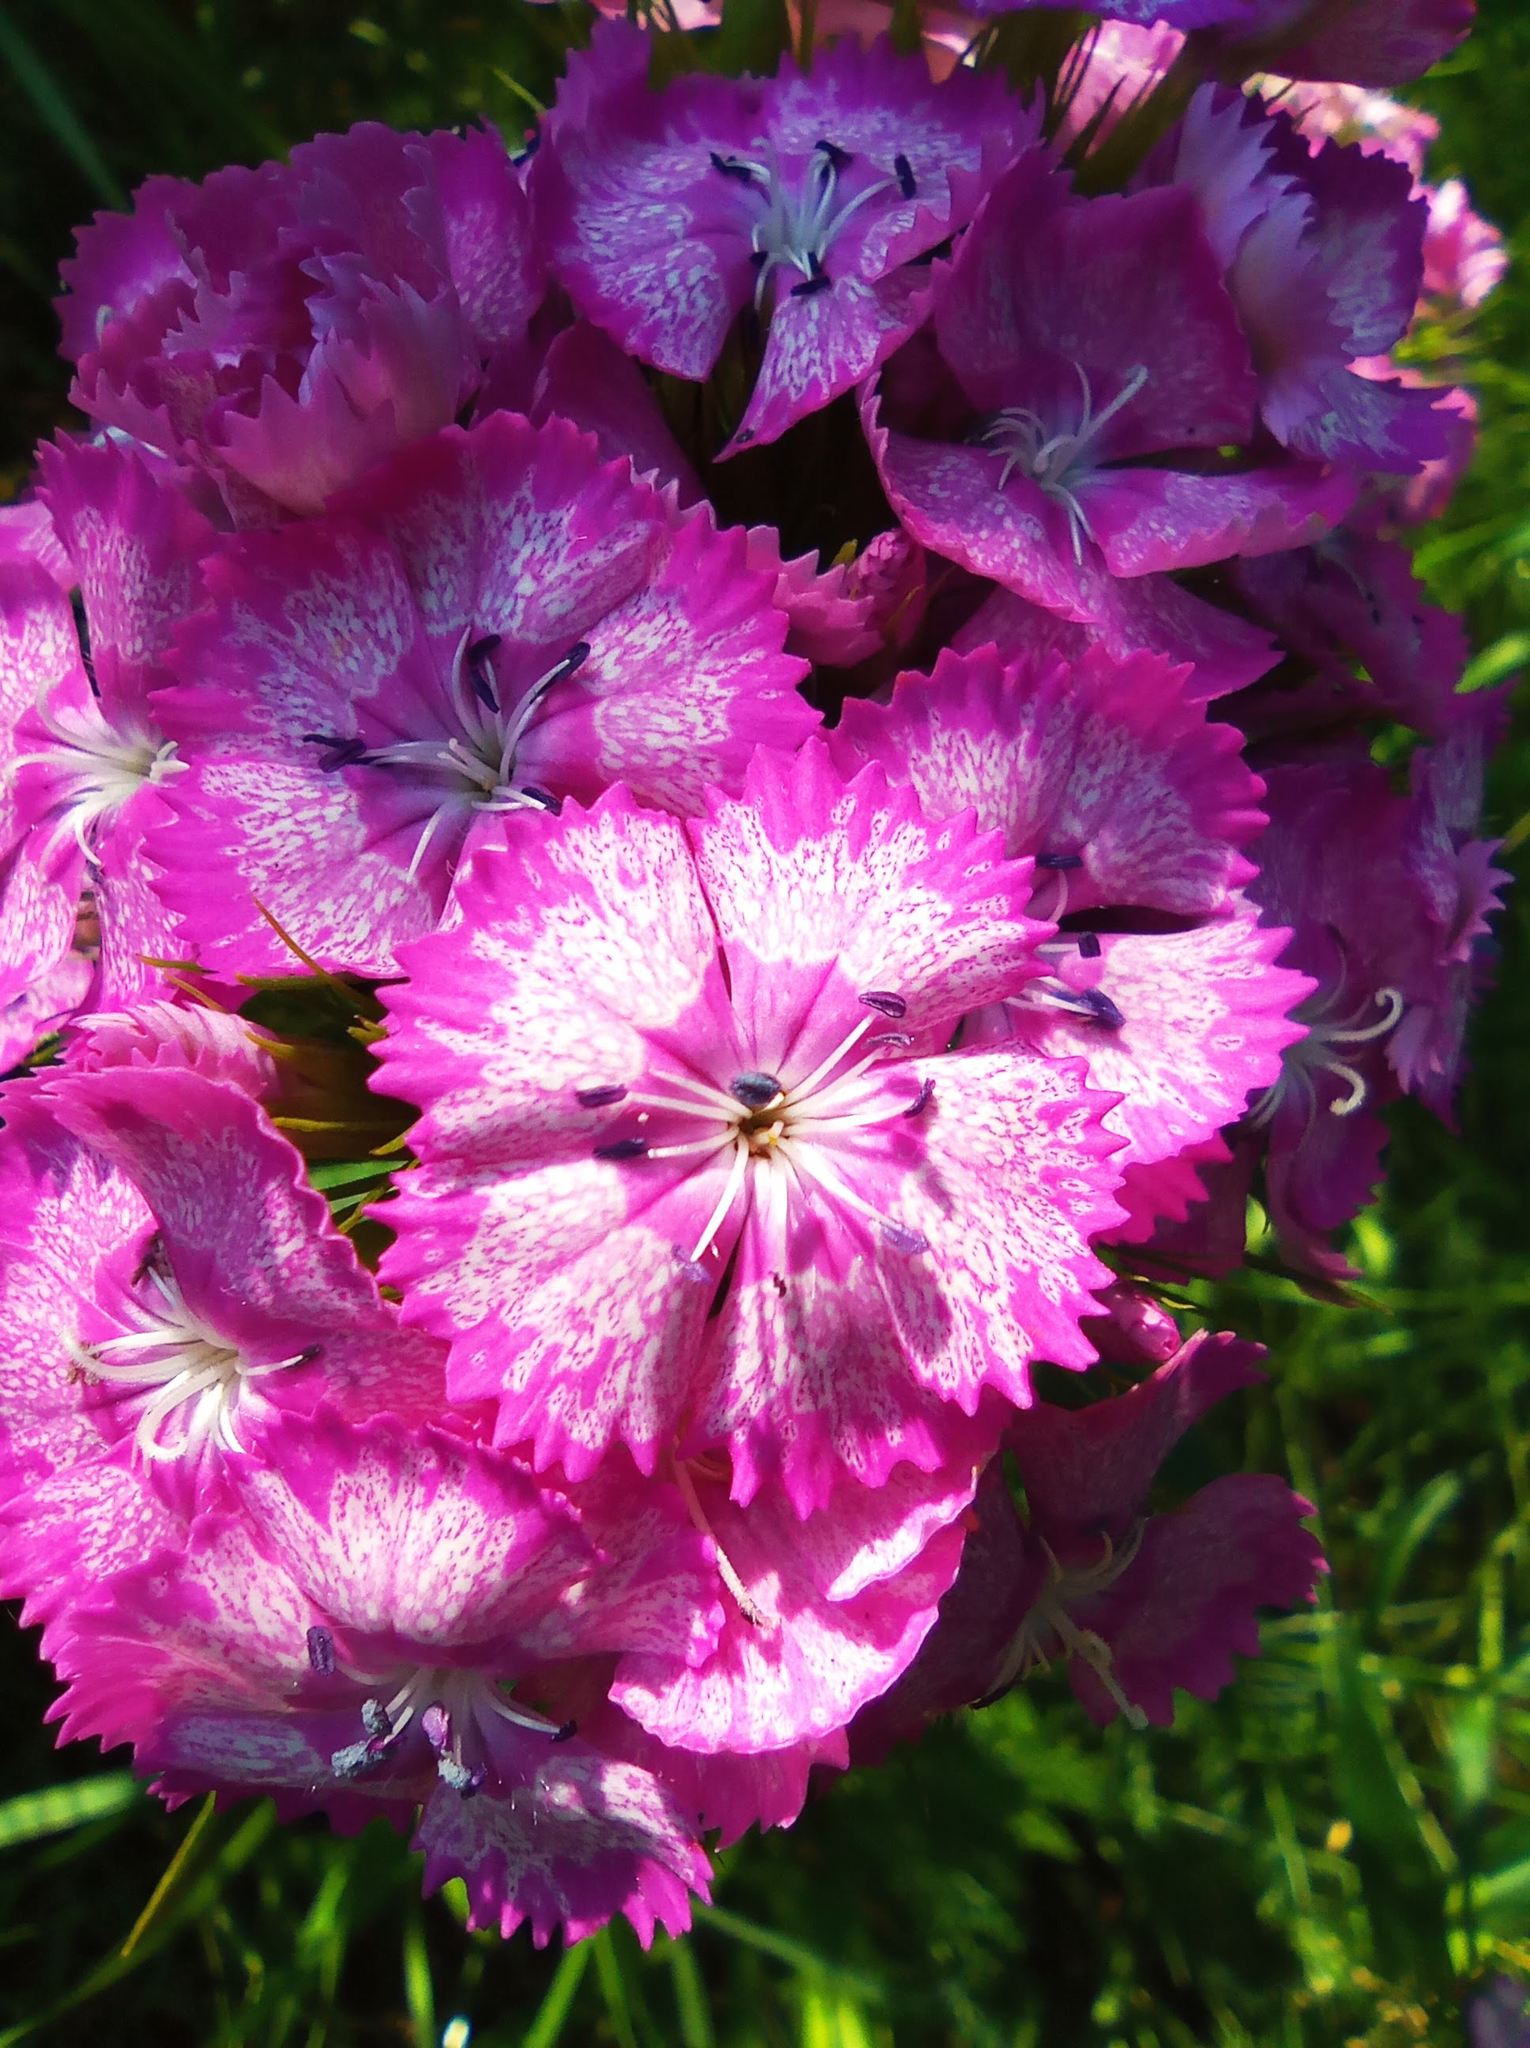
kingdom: Plantae
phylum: Tracheophyta
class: Magnoliopsida
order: Caryophyllales
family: Caryophyllaceae
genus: Dianthus
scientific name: Dianthus barbatus
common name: Sweet-william
